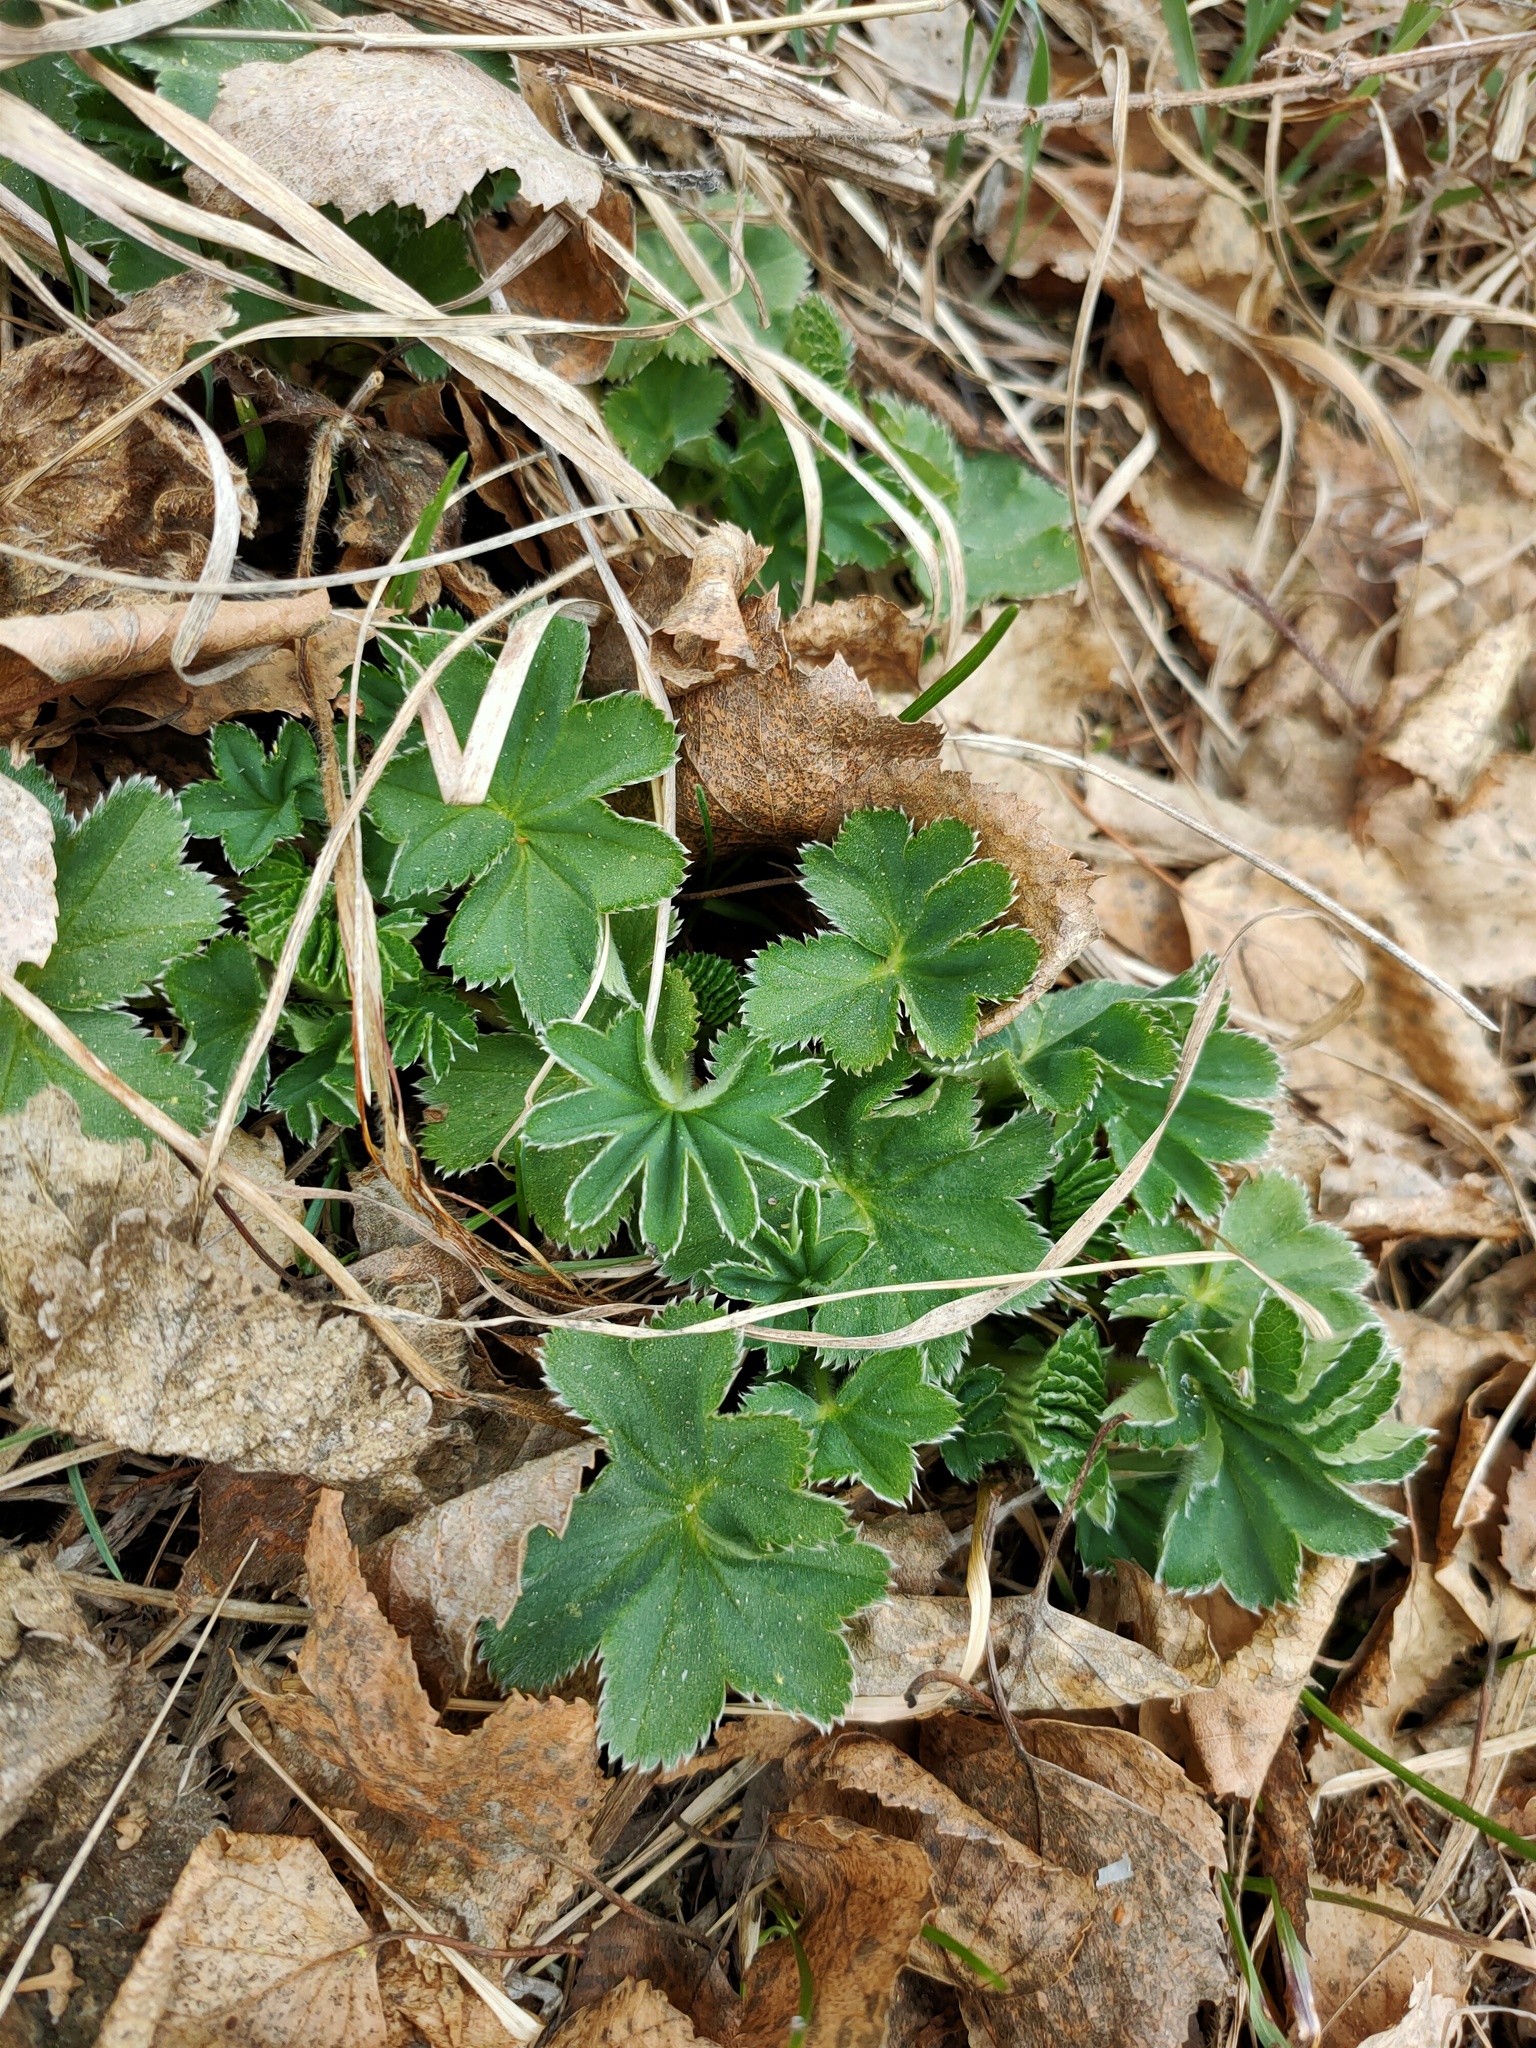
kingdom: Plantae
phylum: Tracheophyta
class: Magnoliopsida
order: Rosales
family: Rosaceae
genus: Alchemilla
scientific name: Alchemilla
